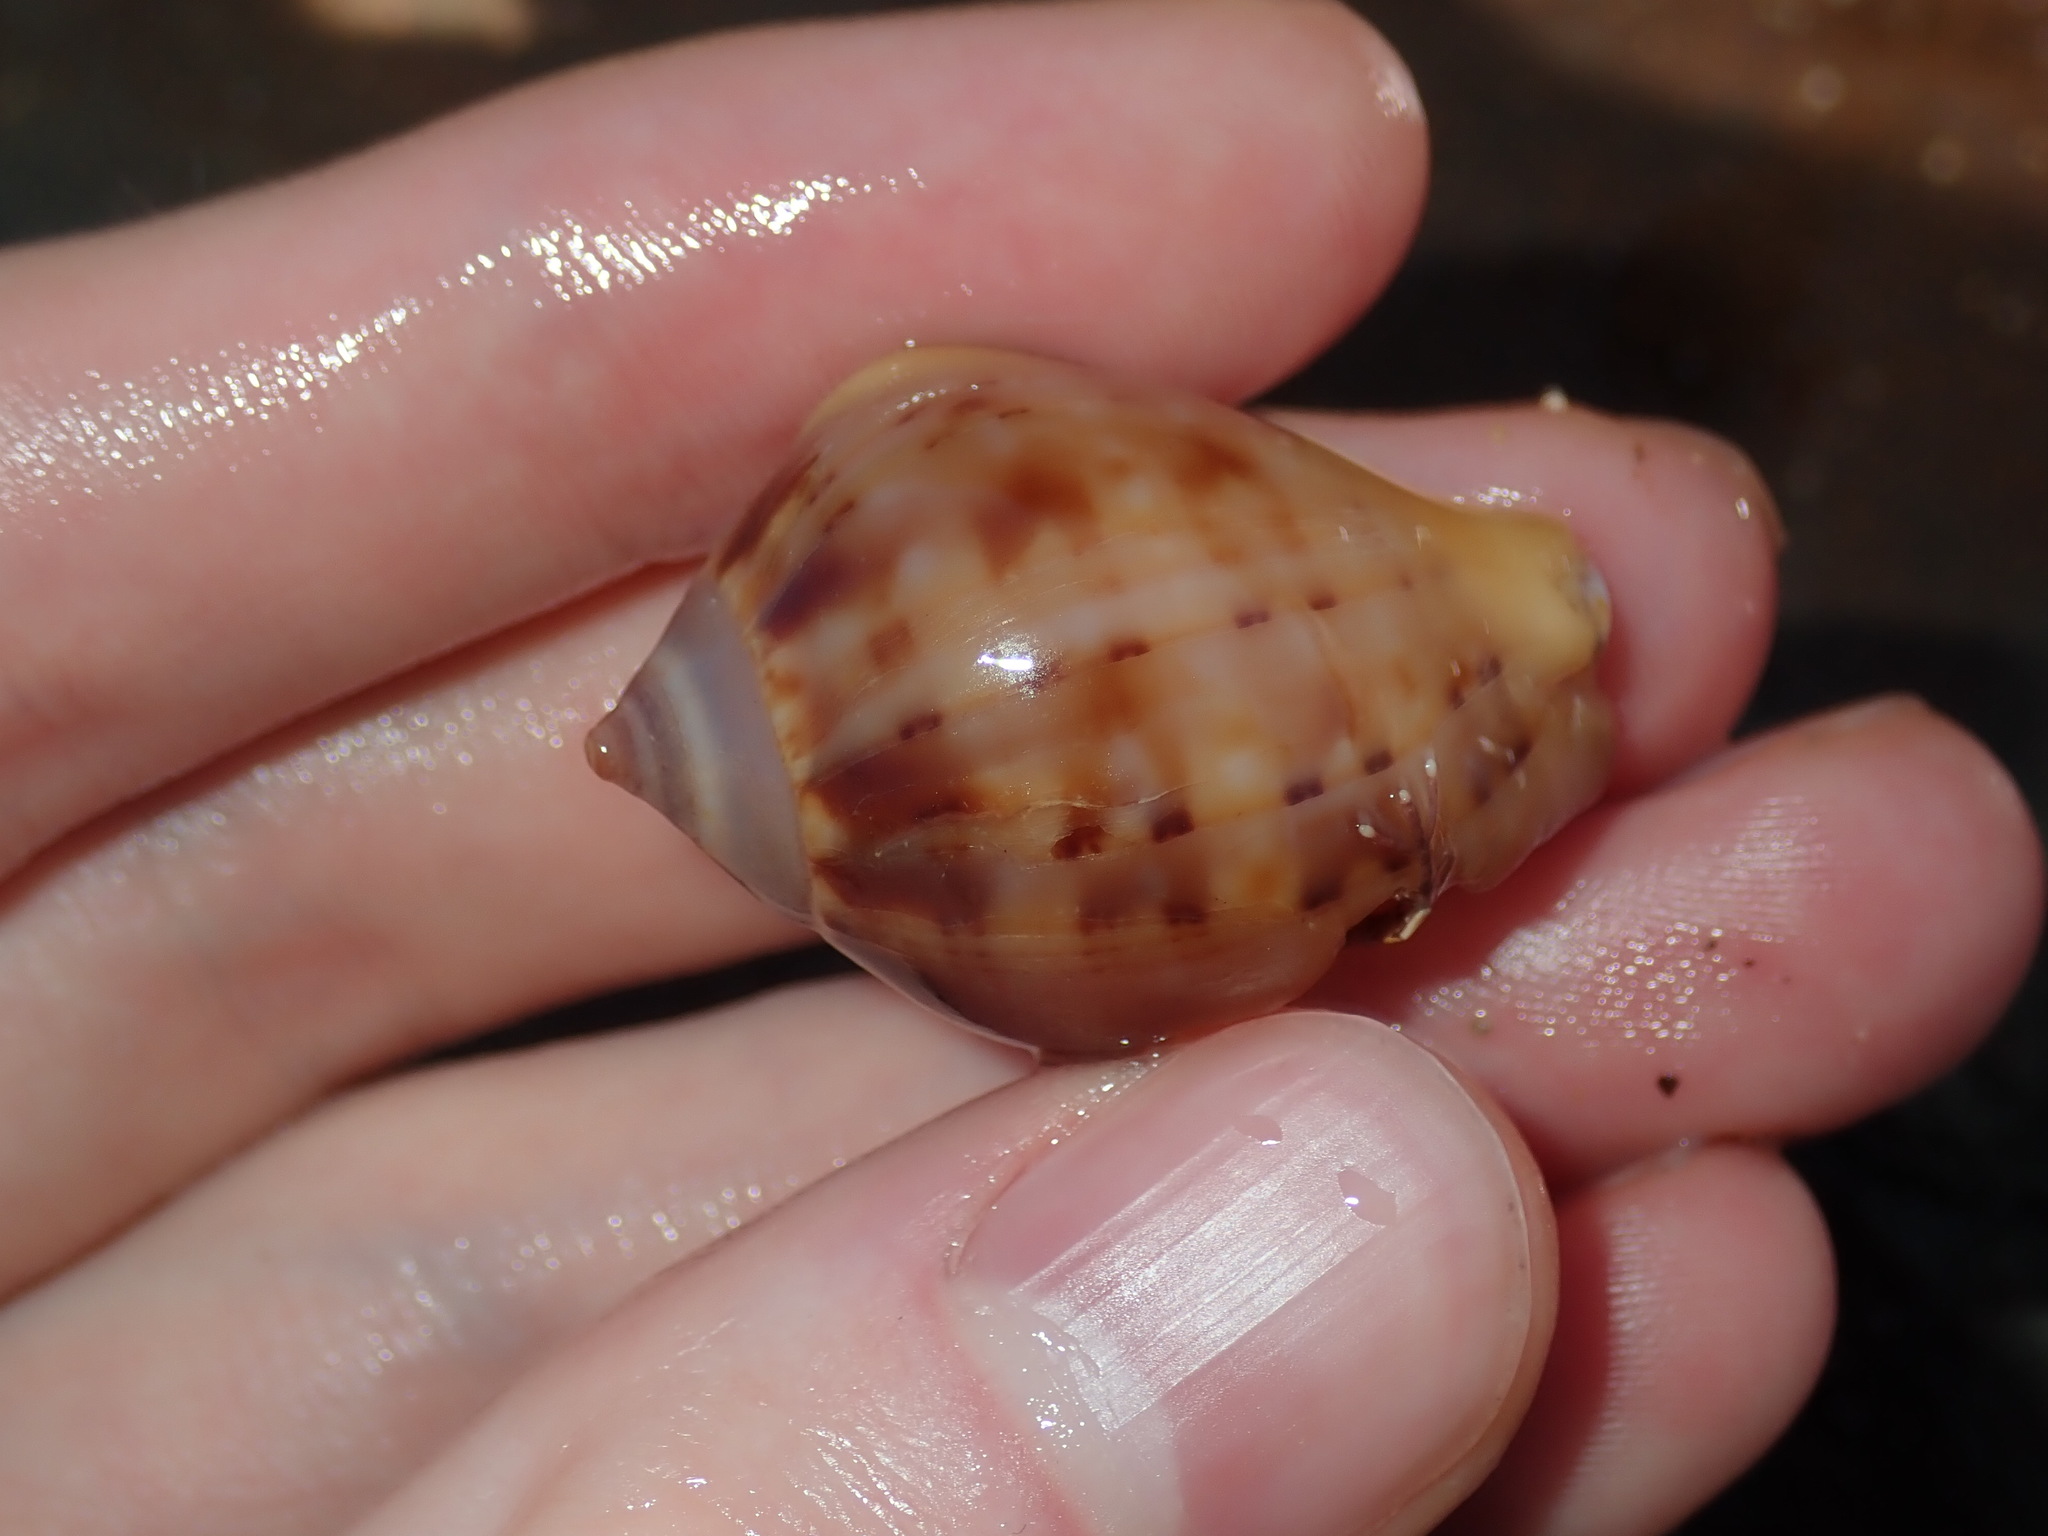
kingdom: Animalia
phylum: Mollusca
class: Gastropoda
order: Littorinimorpha
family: Cassidae
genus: Semicassis
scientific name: Semicassis labiata
